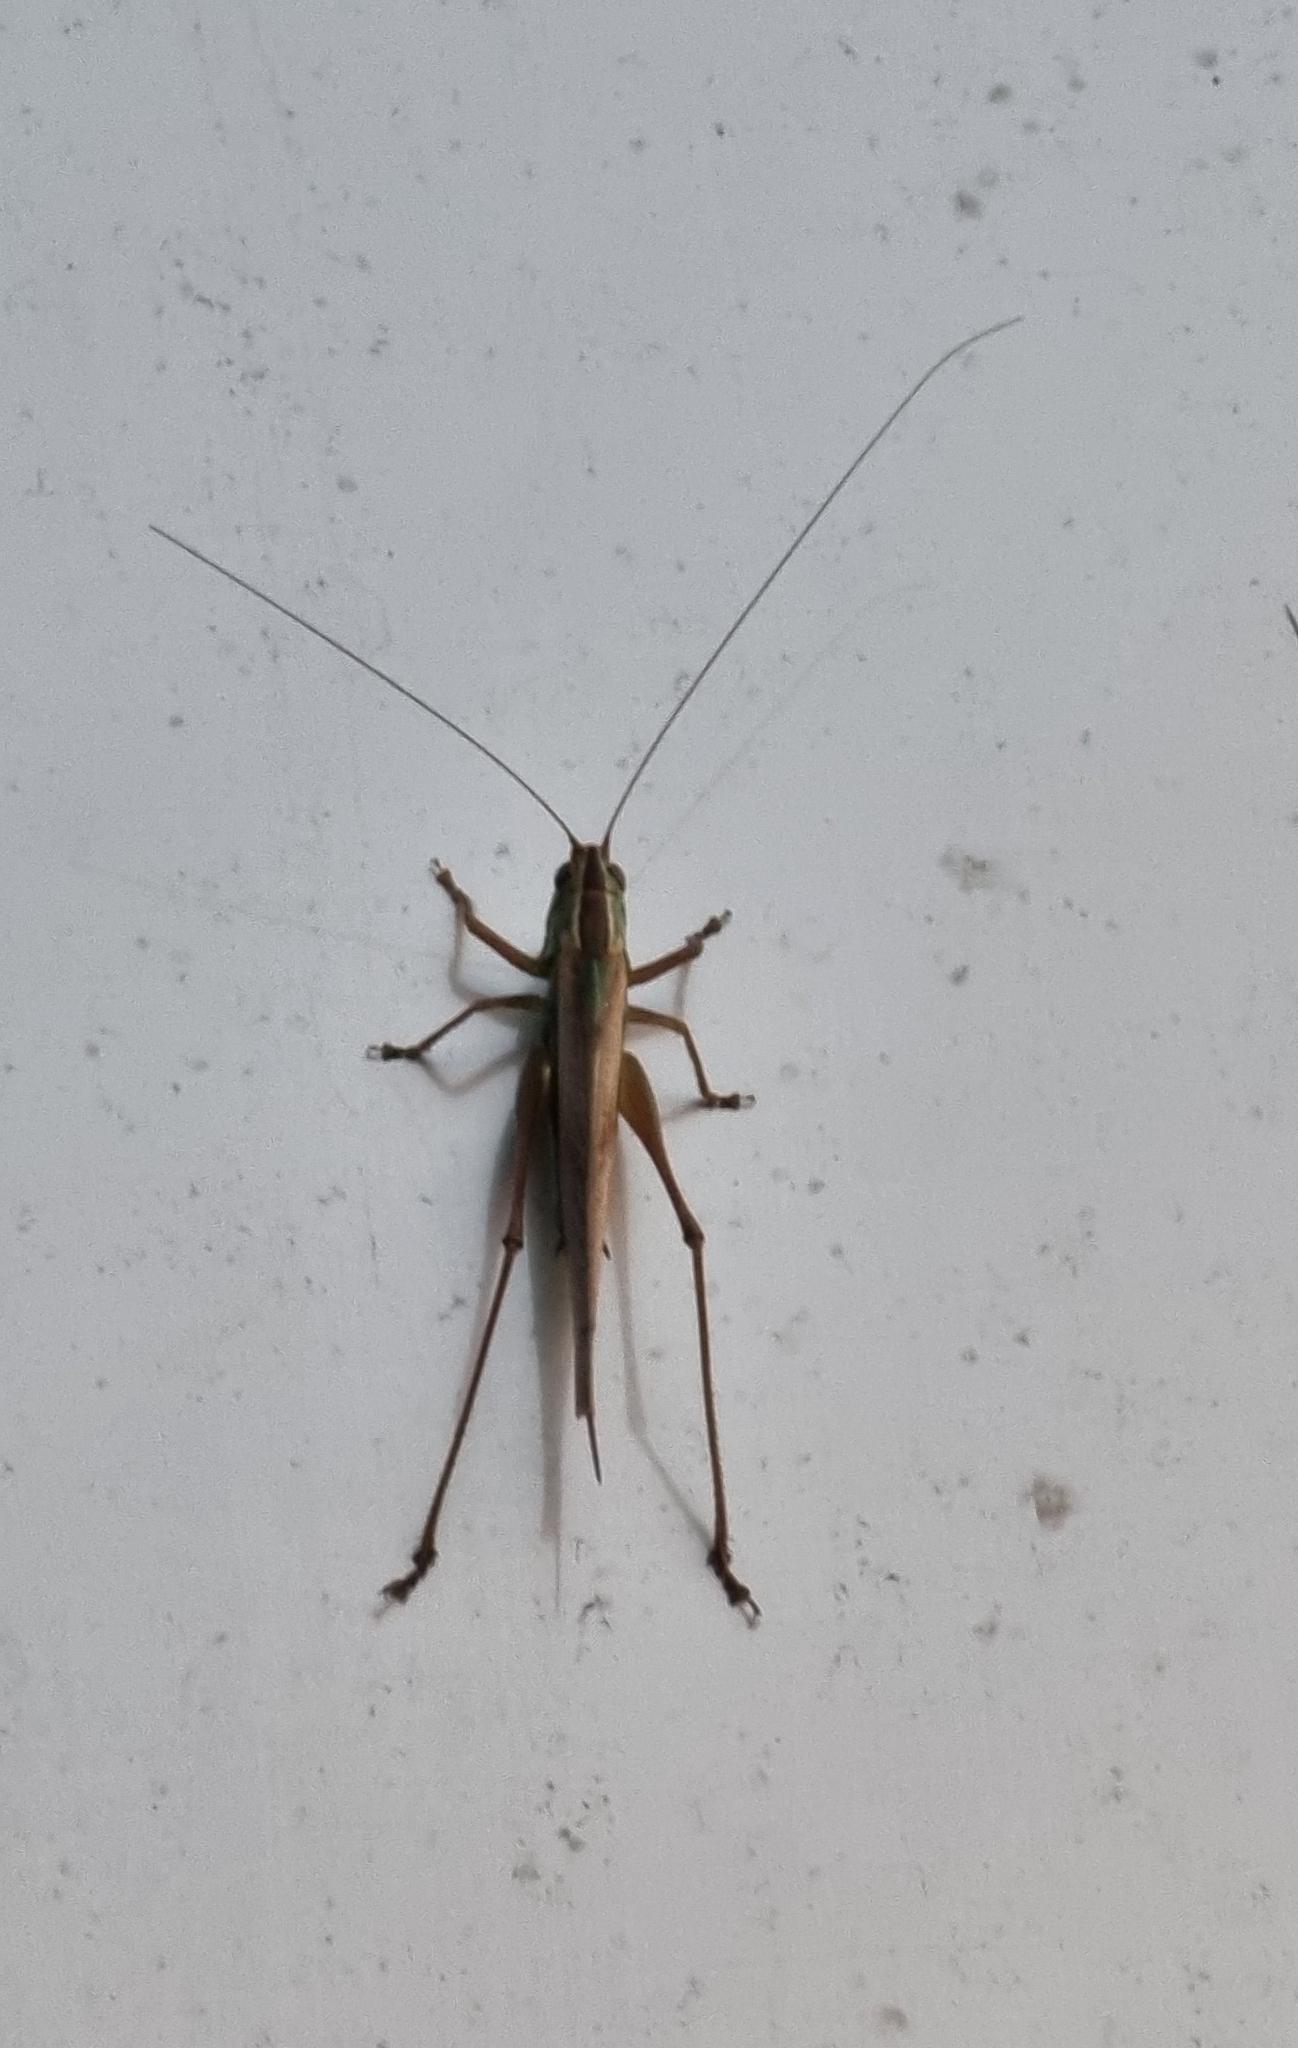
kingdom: Animalia
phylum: Arthropoda
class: Insecta
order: Orthoptera
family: Tettigoniidae
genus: Conocephalus
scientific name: Conocephalus albescens
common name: Whitish meadow katydid
